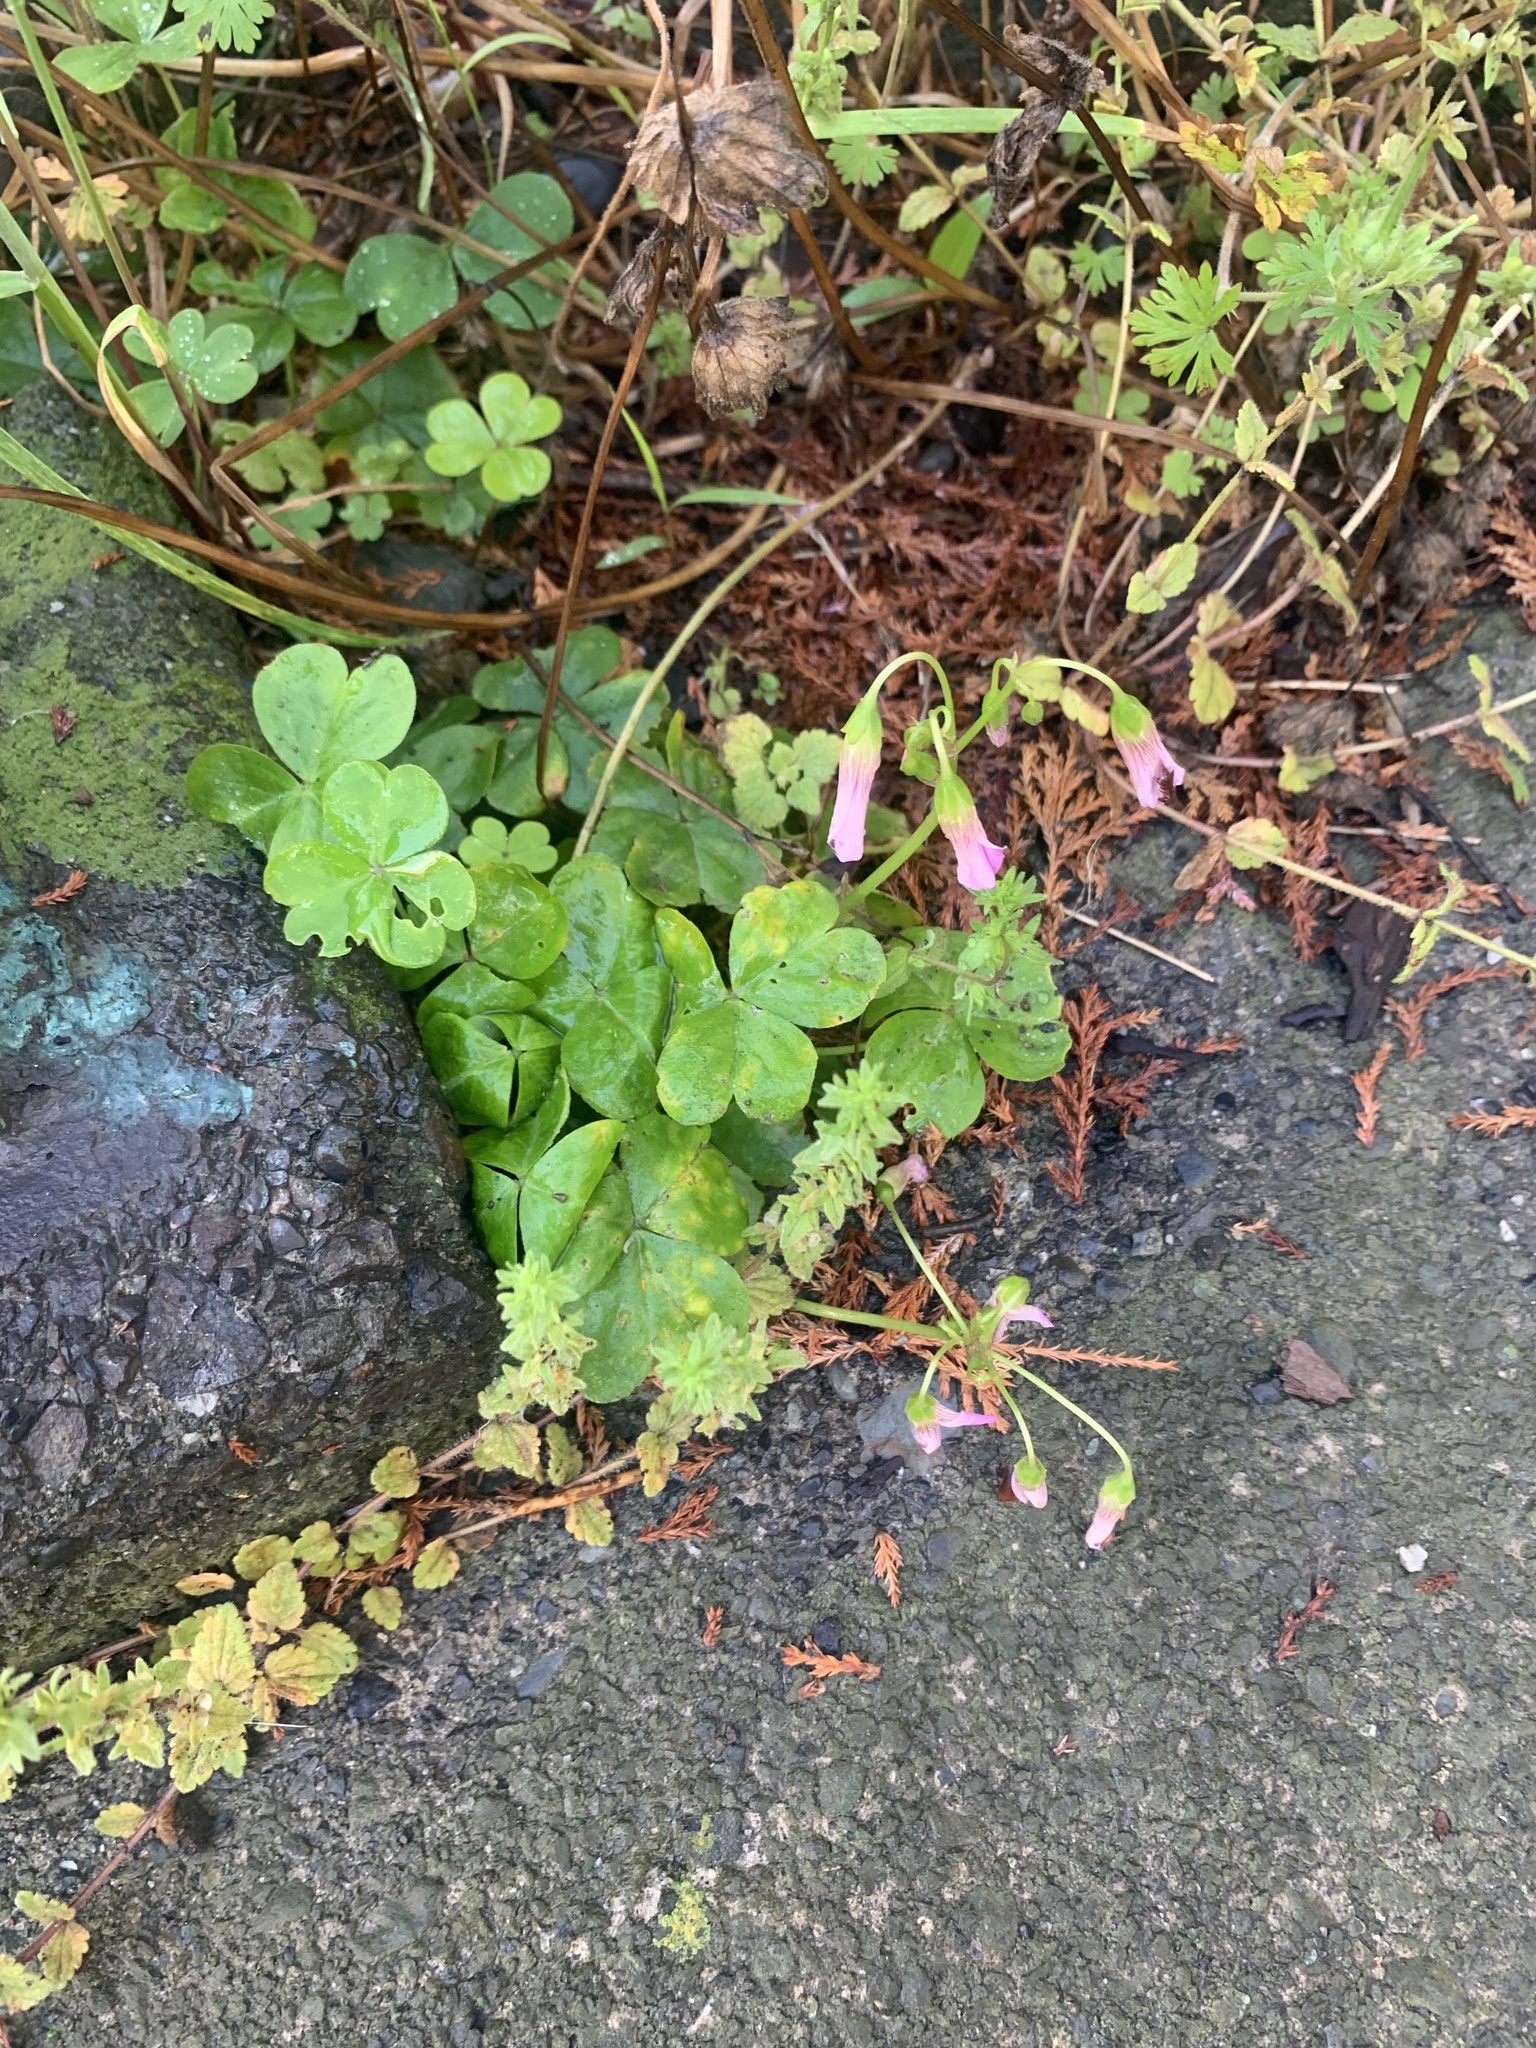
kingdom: Plantae
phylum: Tracheophyta
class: Magnoliopsida
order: Oxalidales
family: Oxalidaceae
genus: Oxalis
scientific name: Oxalis debilis
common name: Large-flowered pink-sorrel
